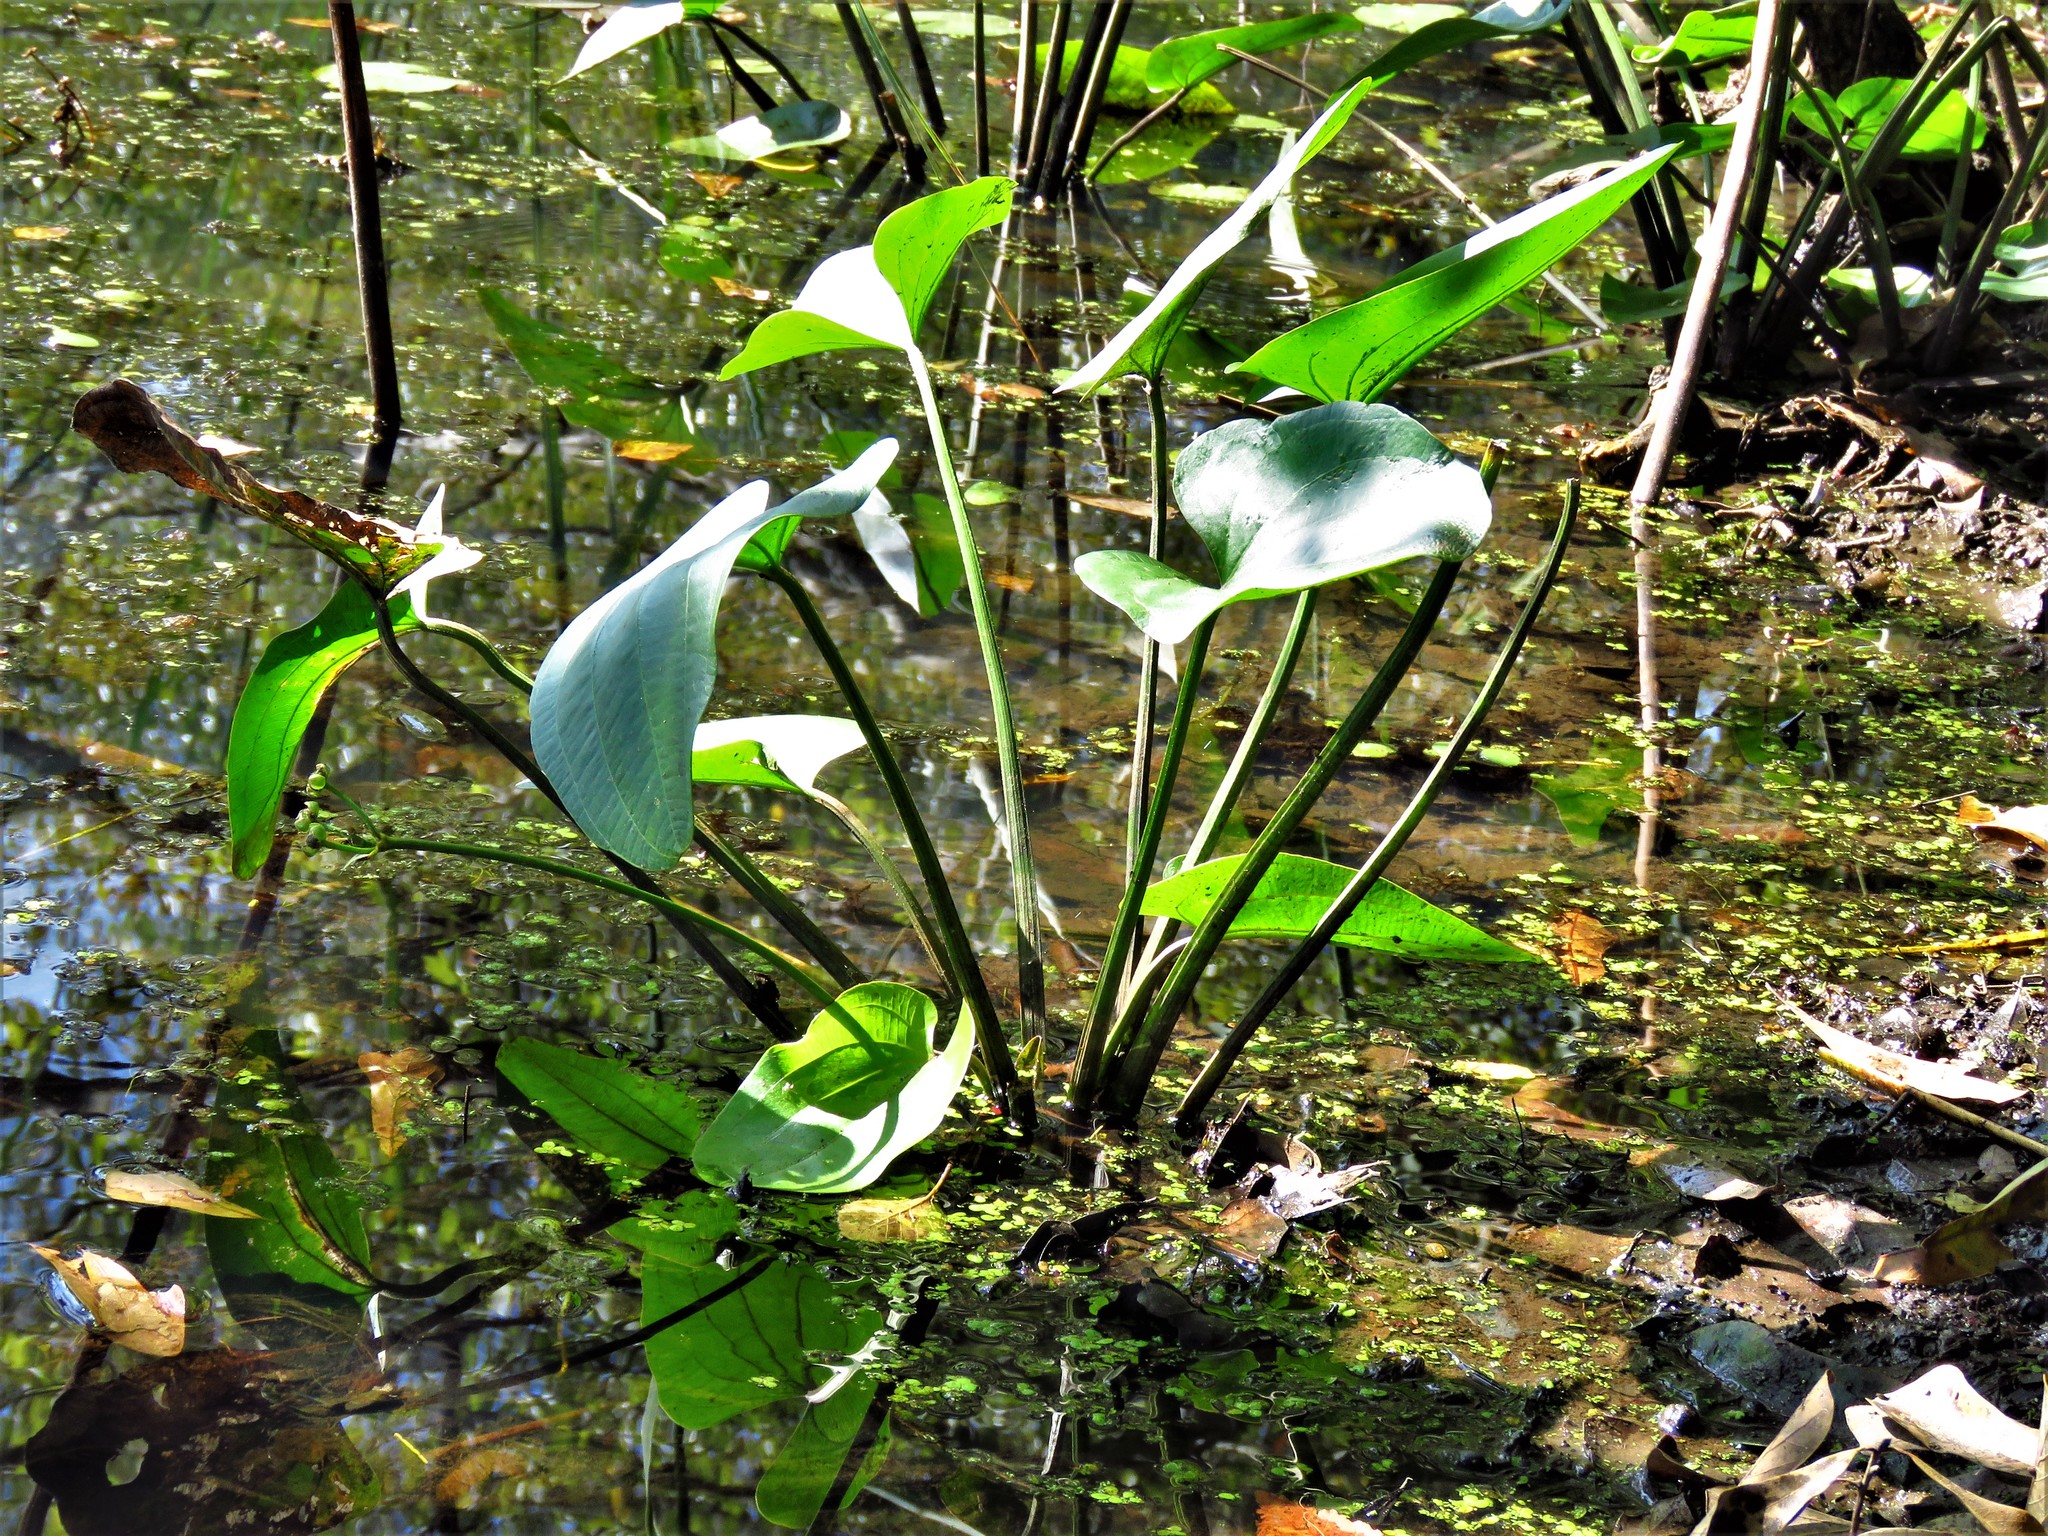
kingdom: Plantae
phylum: Tracheophyta
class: Liliopsida
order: Alismatales
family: Alismataceae
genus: Aquarius
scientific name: Aquarius cordifolius
